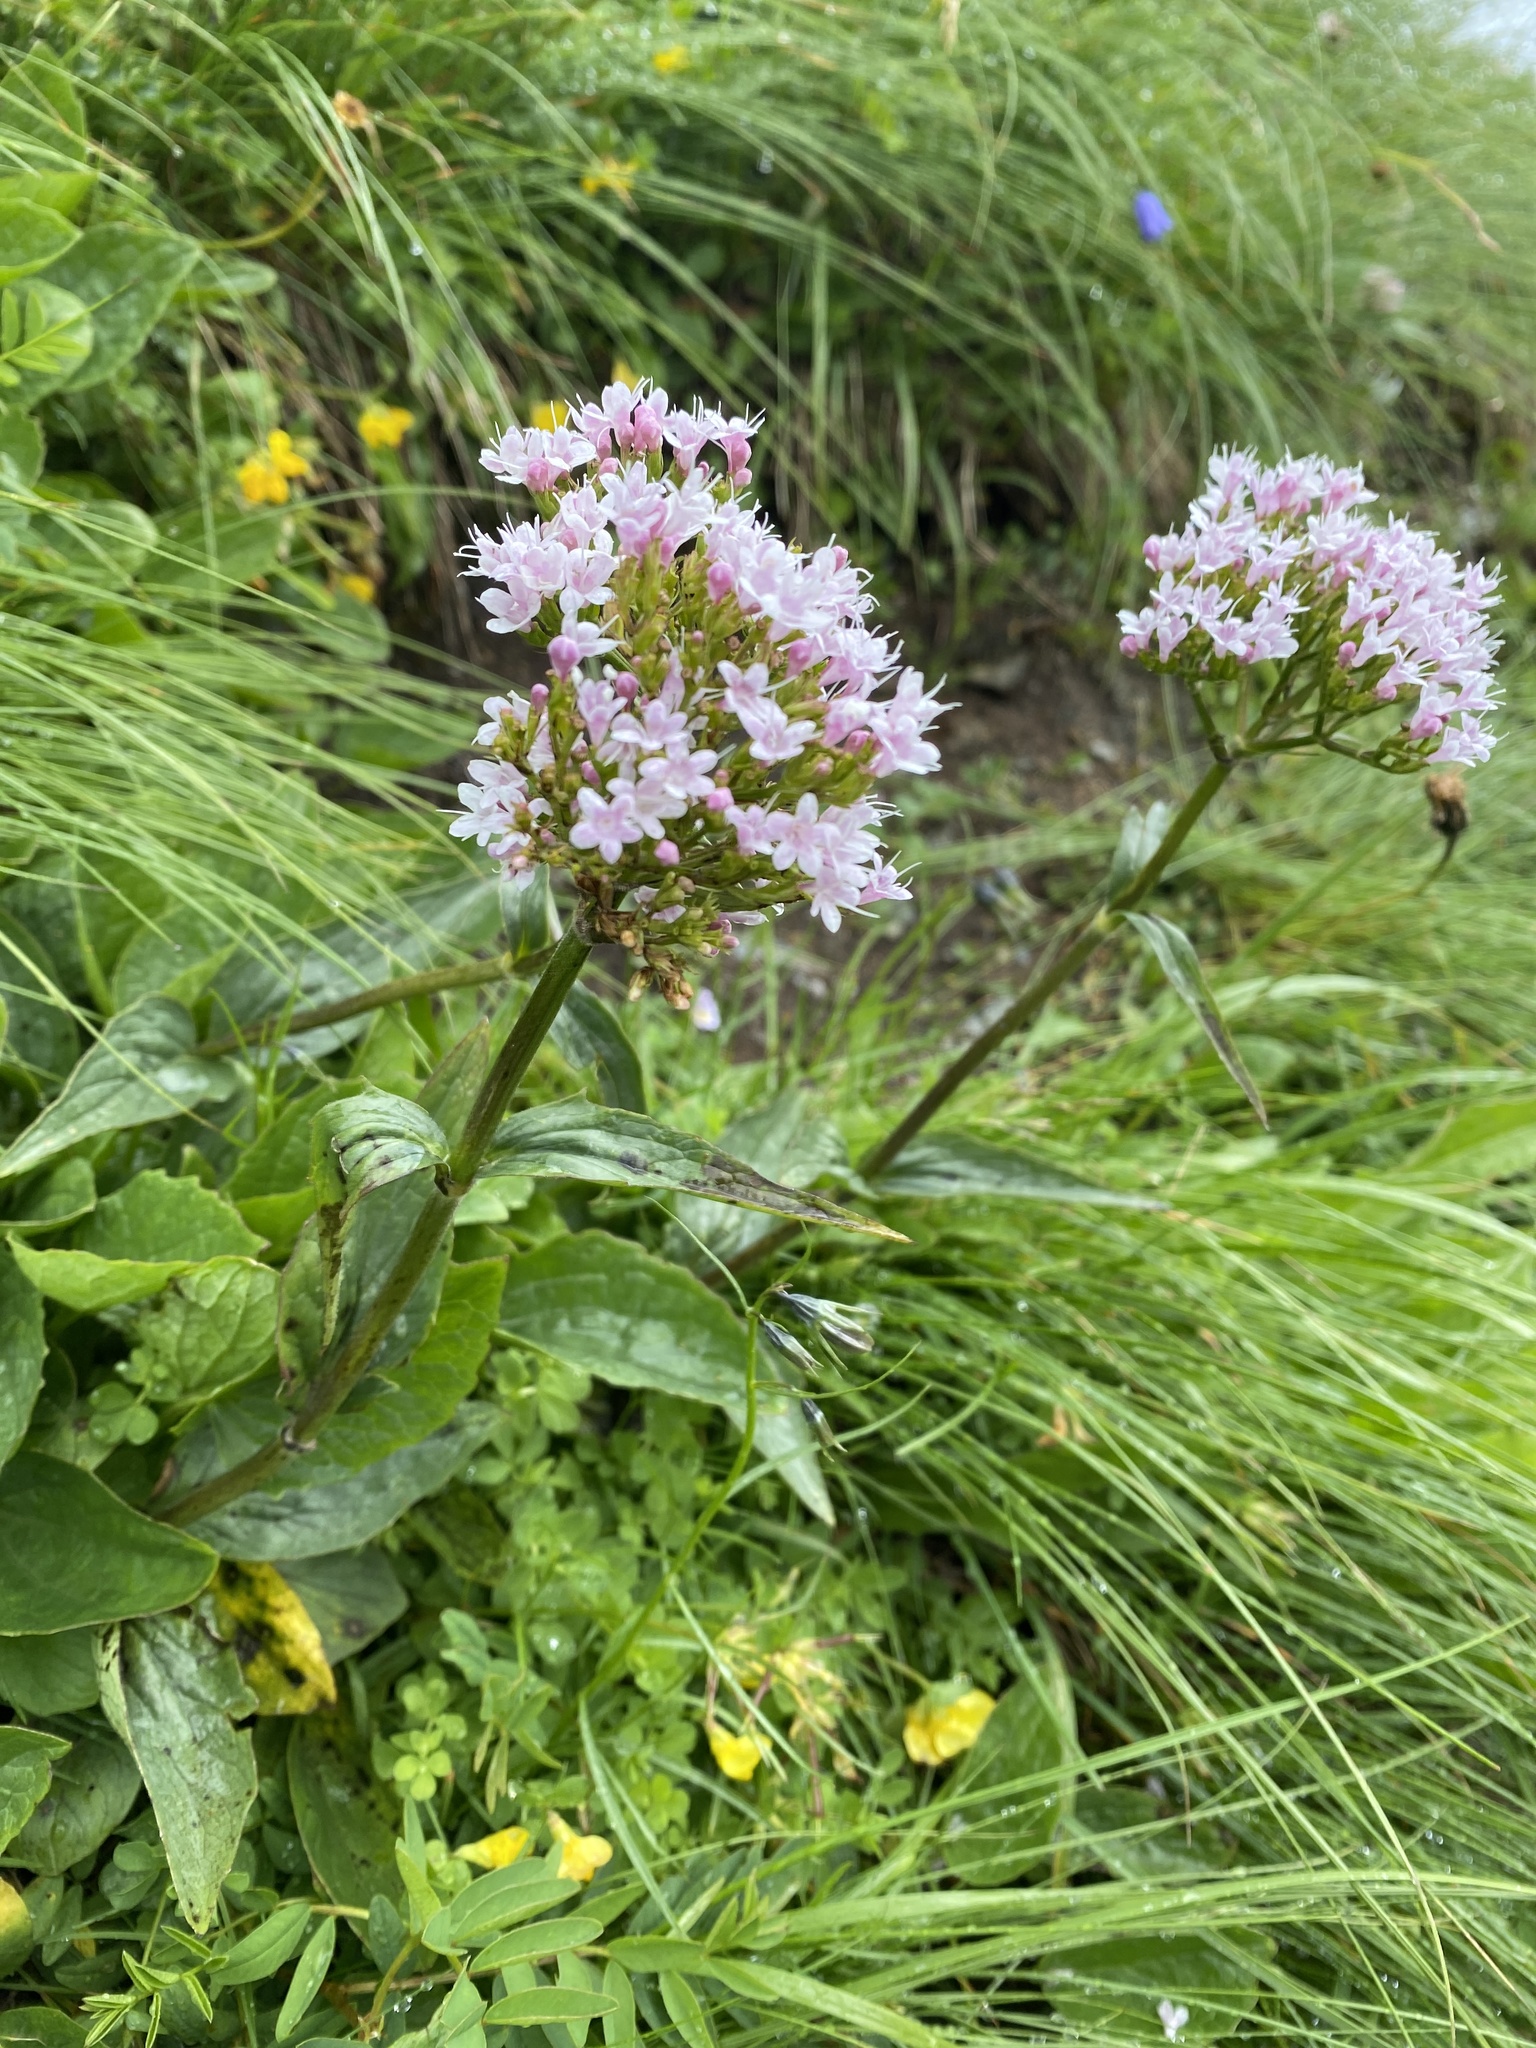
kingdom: Plantae
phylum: Tracheophyta
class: Magnoliopsida
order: Dipsacales
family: Caprifoliaceae
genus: Valeriana
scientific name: Valeriana montana
